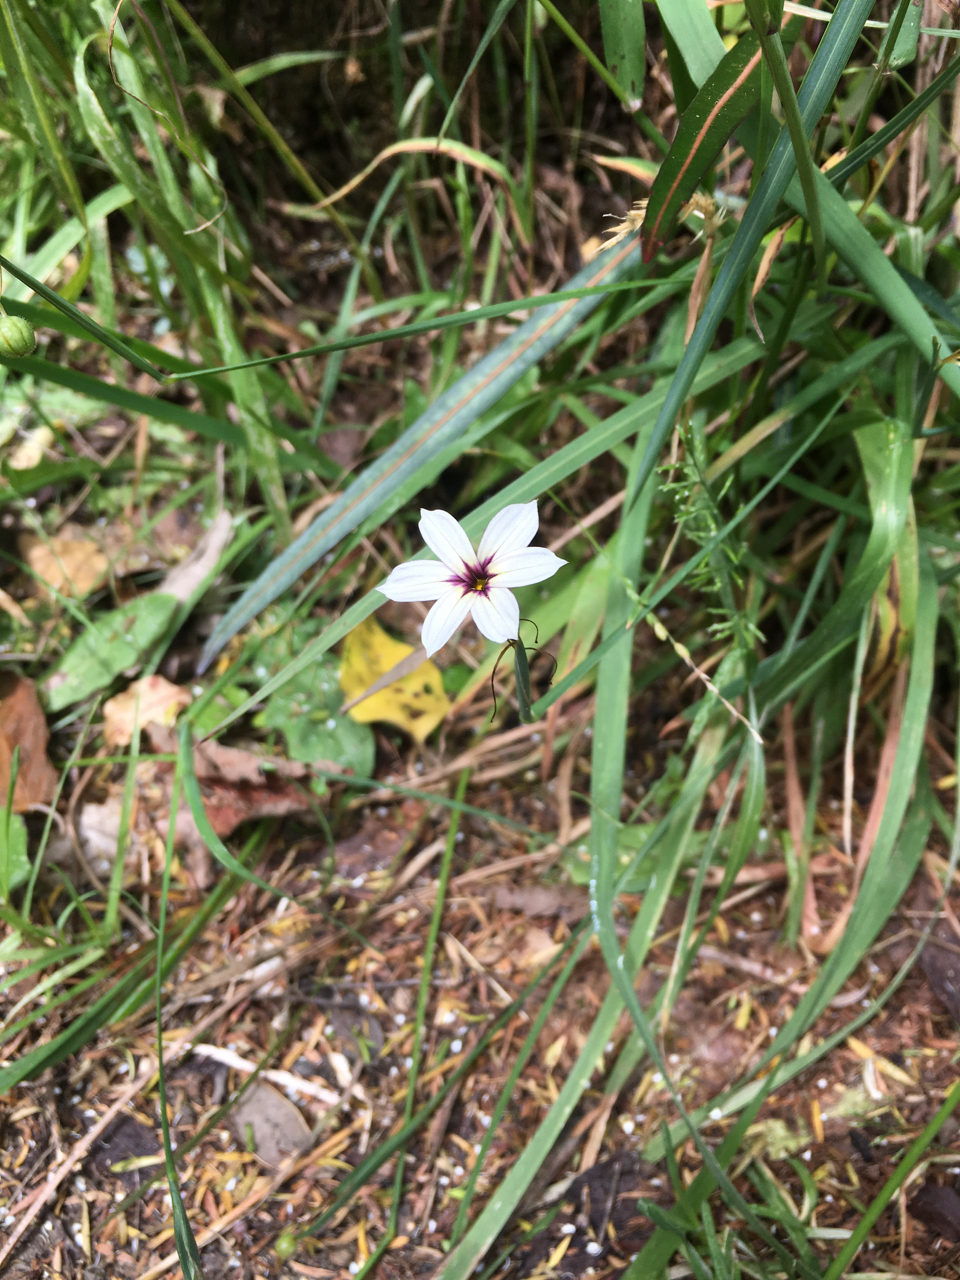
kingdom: Plantae
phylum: Tracheophyta
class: Liliopsida
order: Asparagales
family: Iridaceae
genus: Sisyrinchium
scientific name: Sisyrinchium micranthum
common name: Bermuda pigroot
